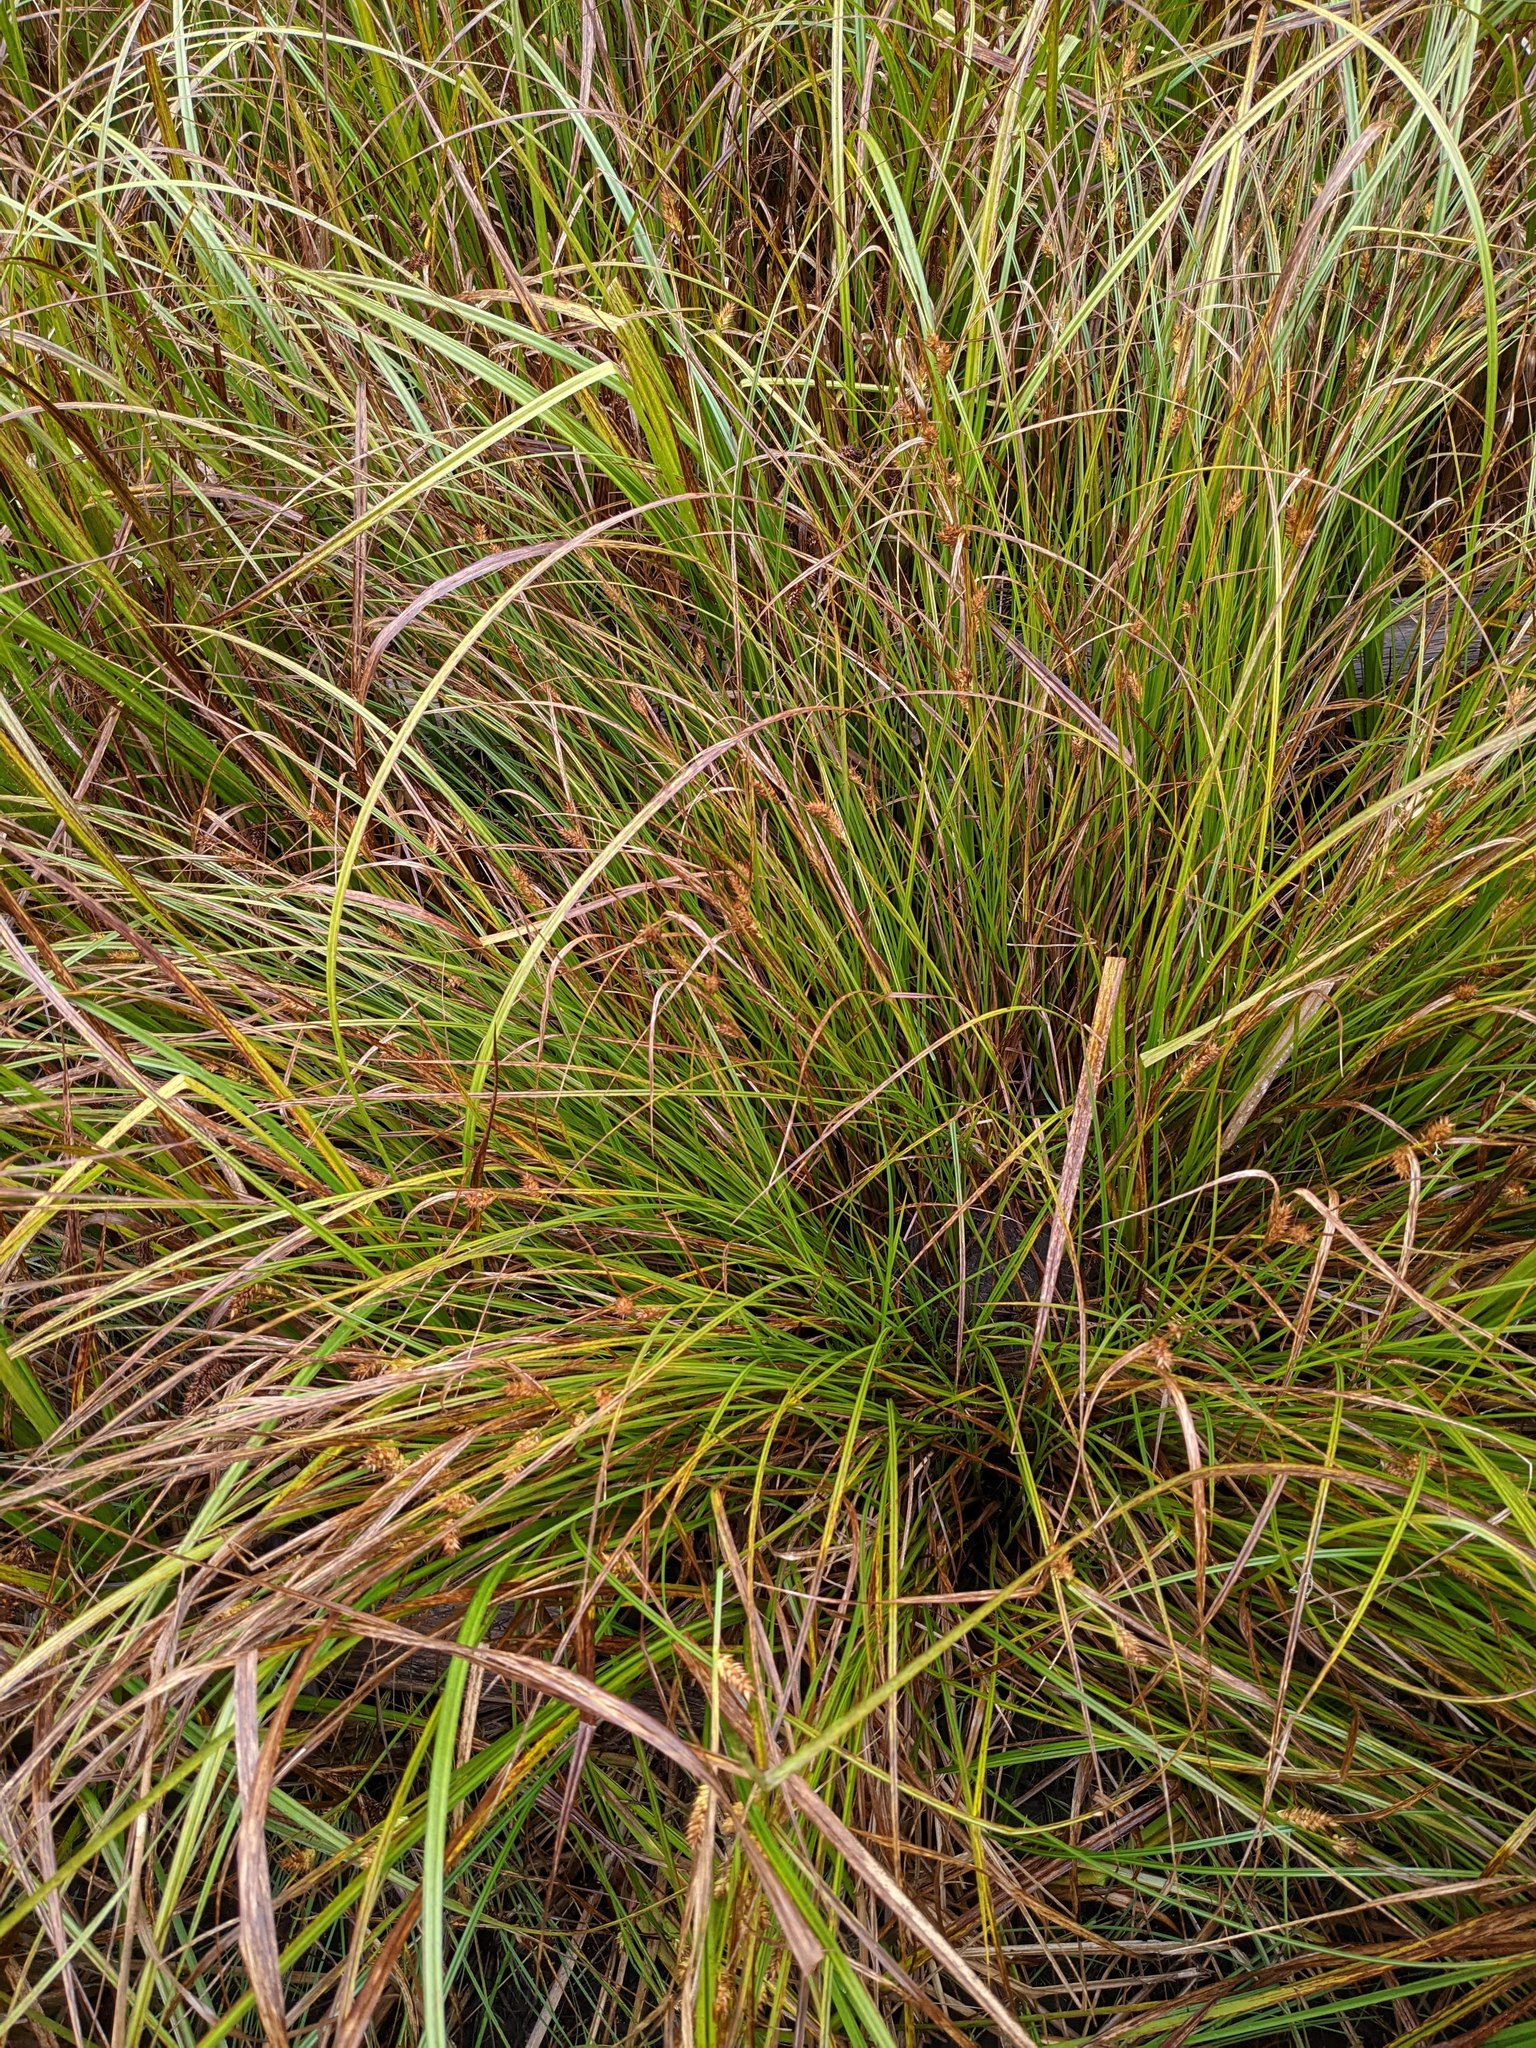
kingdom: Plantae
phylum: Tracheophyta
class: Liliopsida
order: Poales
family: Cyperaceae
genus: Carex
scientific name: Carex exsiccata
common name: Beaked sedge
